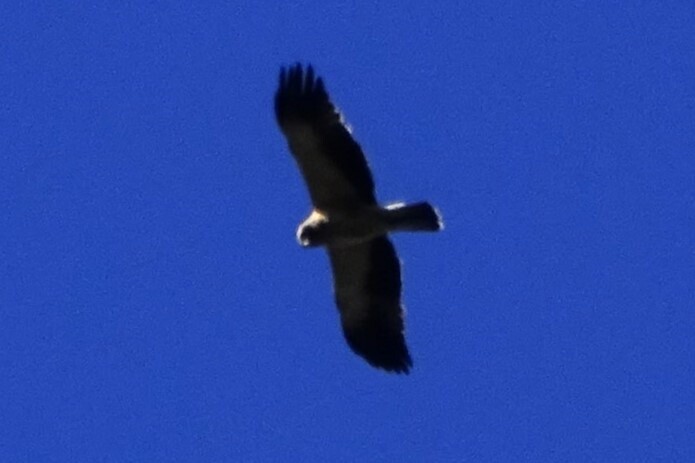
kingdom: Animalia
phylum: Chordata
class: Aves
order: Accipitriformes
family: Accipitridae
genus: Hieraaetus
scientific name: Hieraaetus pennatus
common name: Booted eagle
